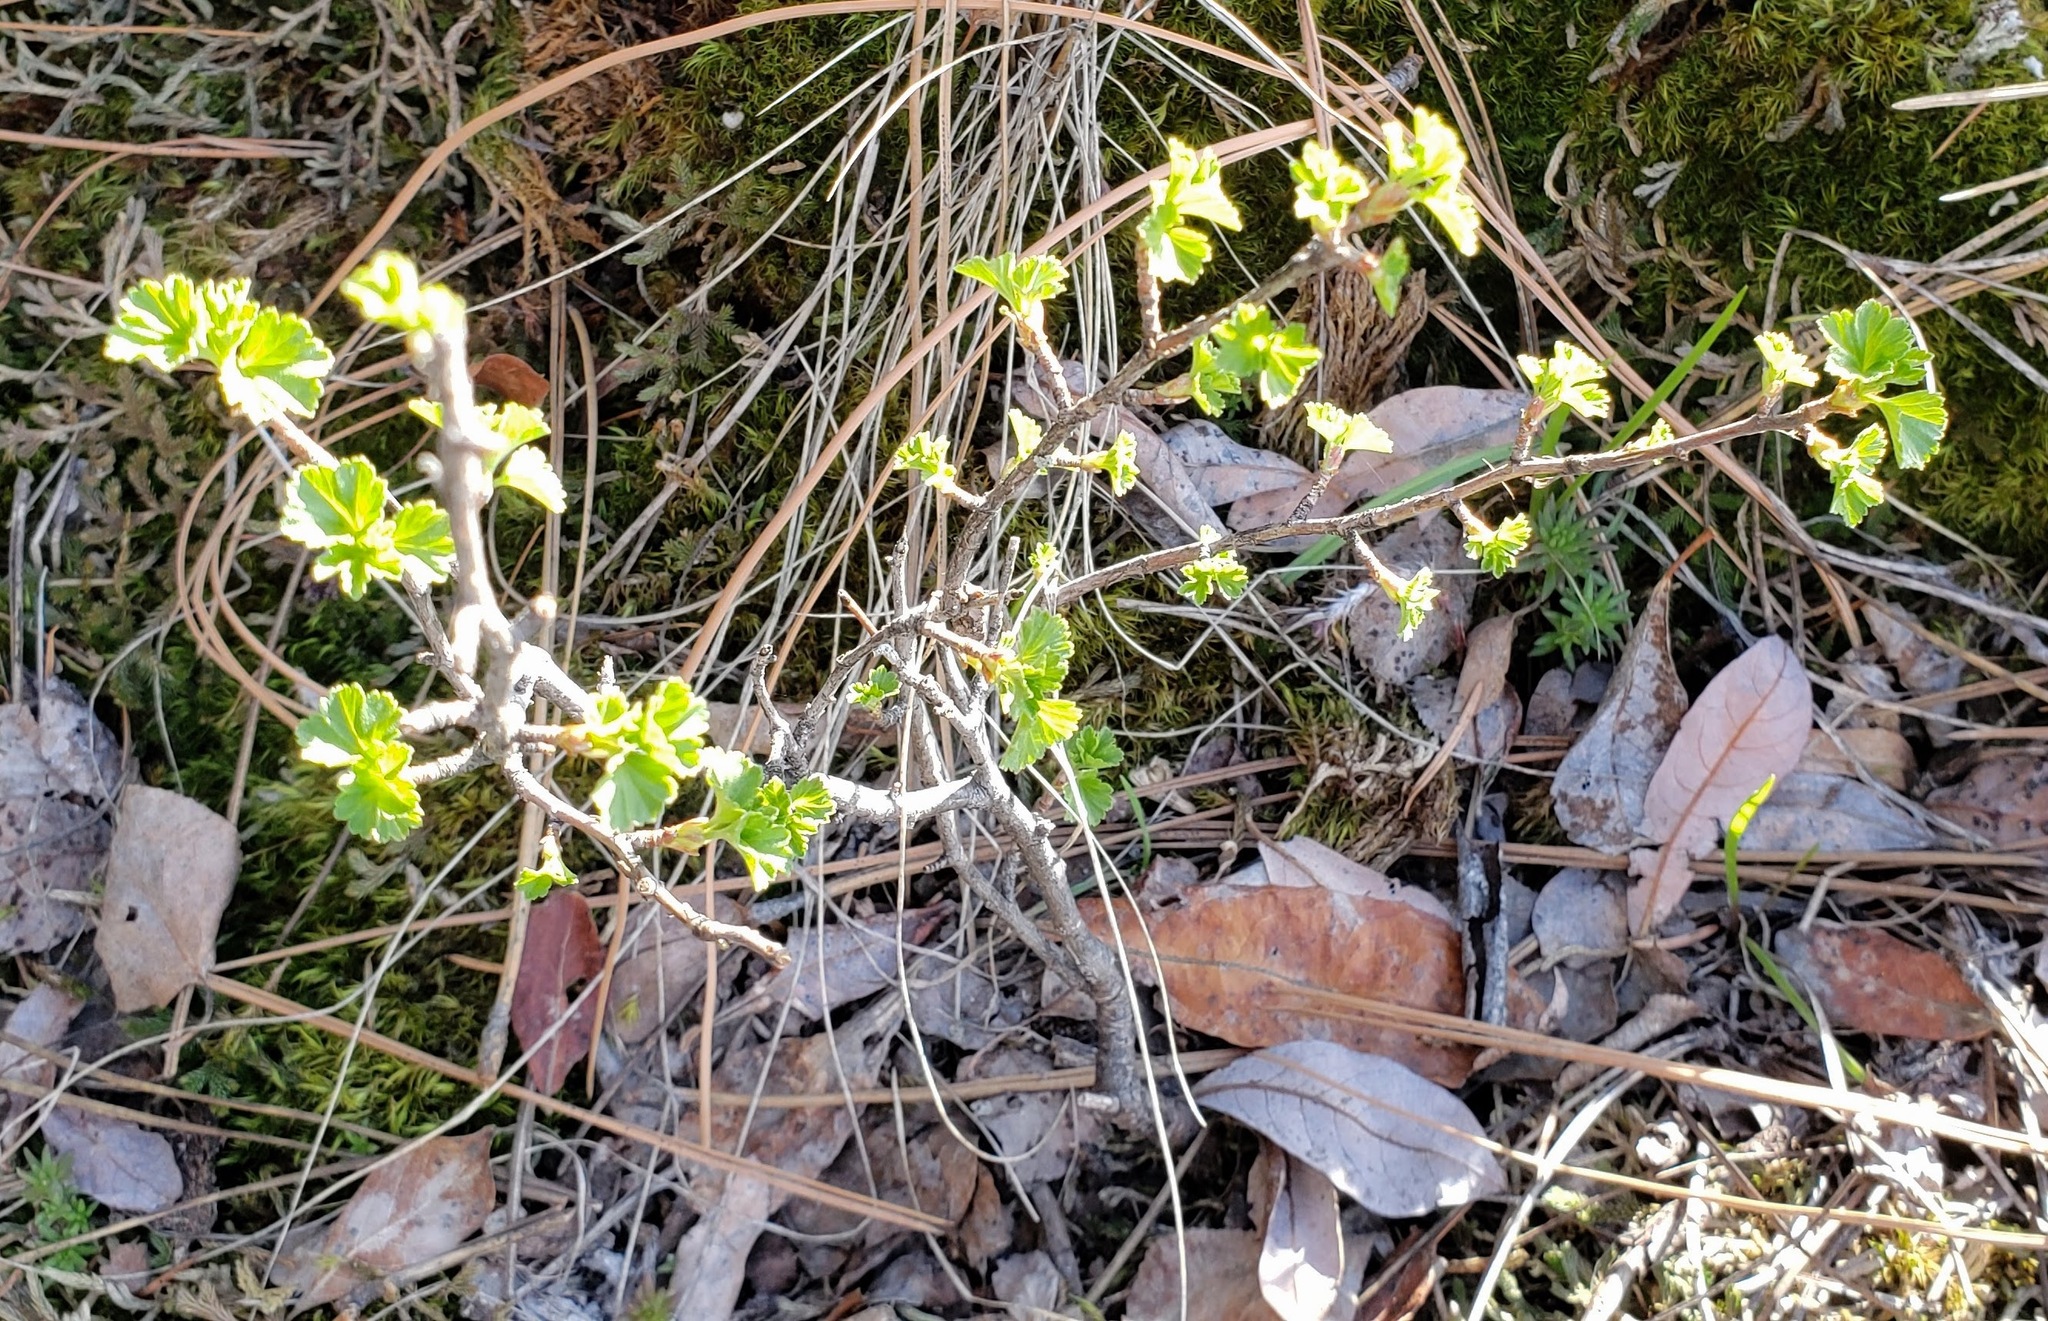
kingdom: Plantae
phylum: Tracheophyta
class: Magnoliopsida
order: Saxifragales
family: Grossulariaceae
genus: Ribes
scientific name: Ribes cereum
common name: Wax currant
